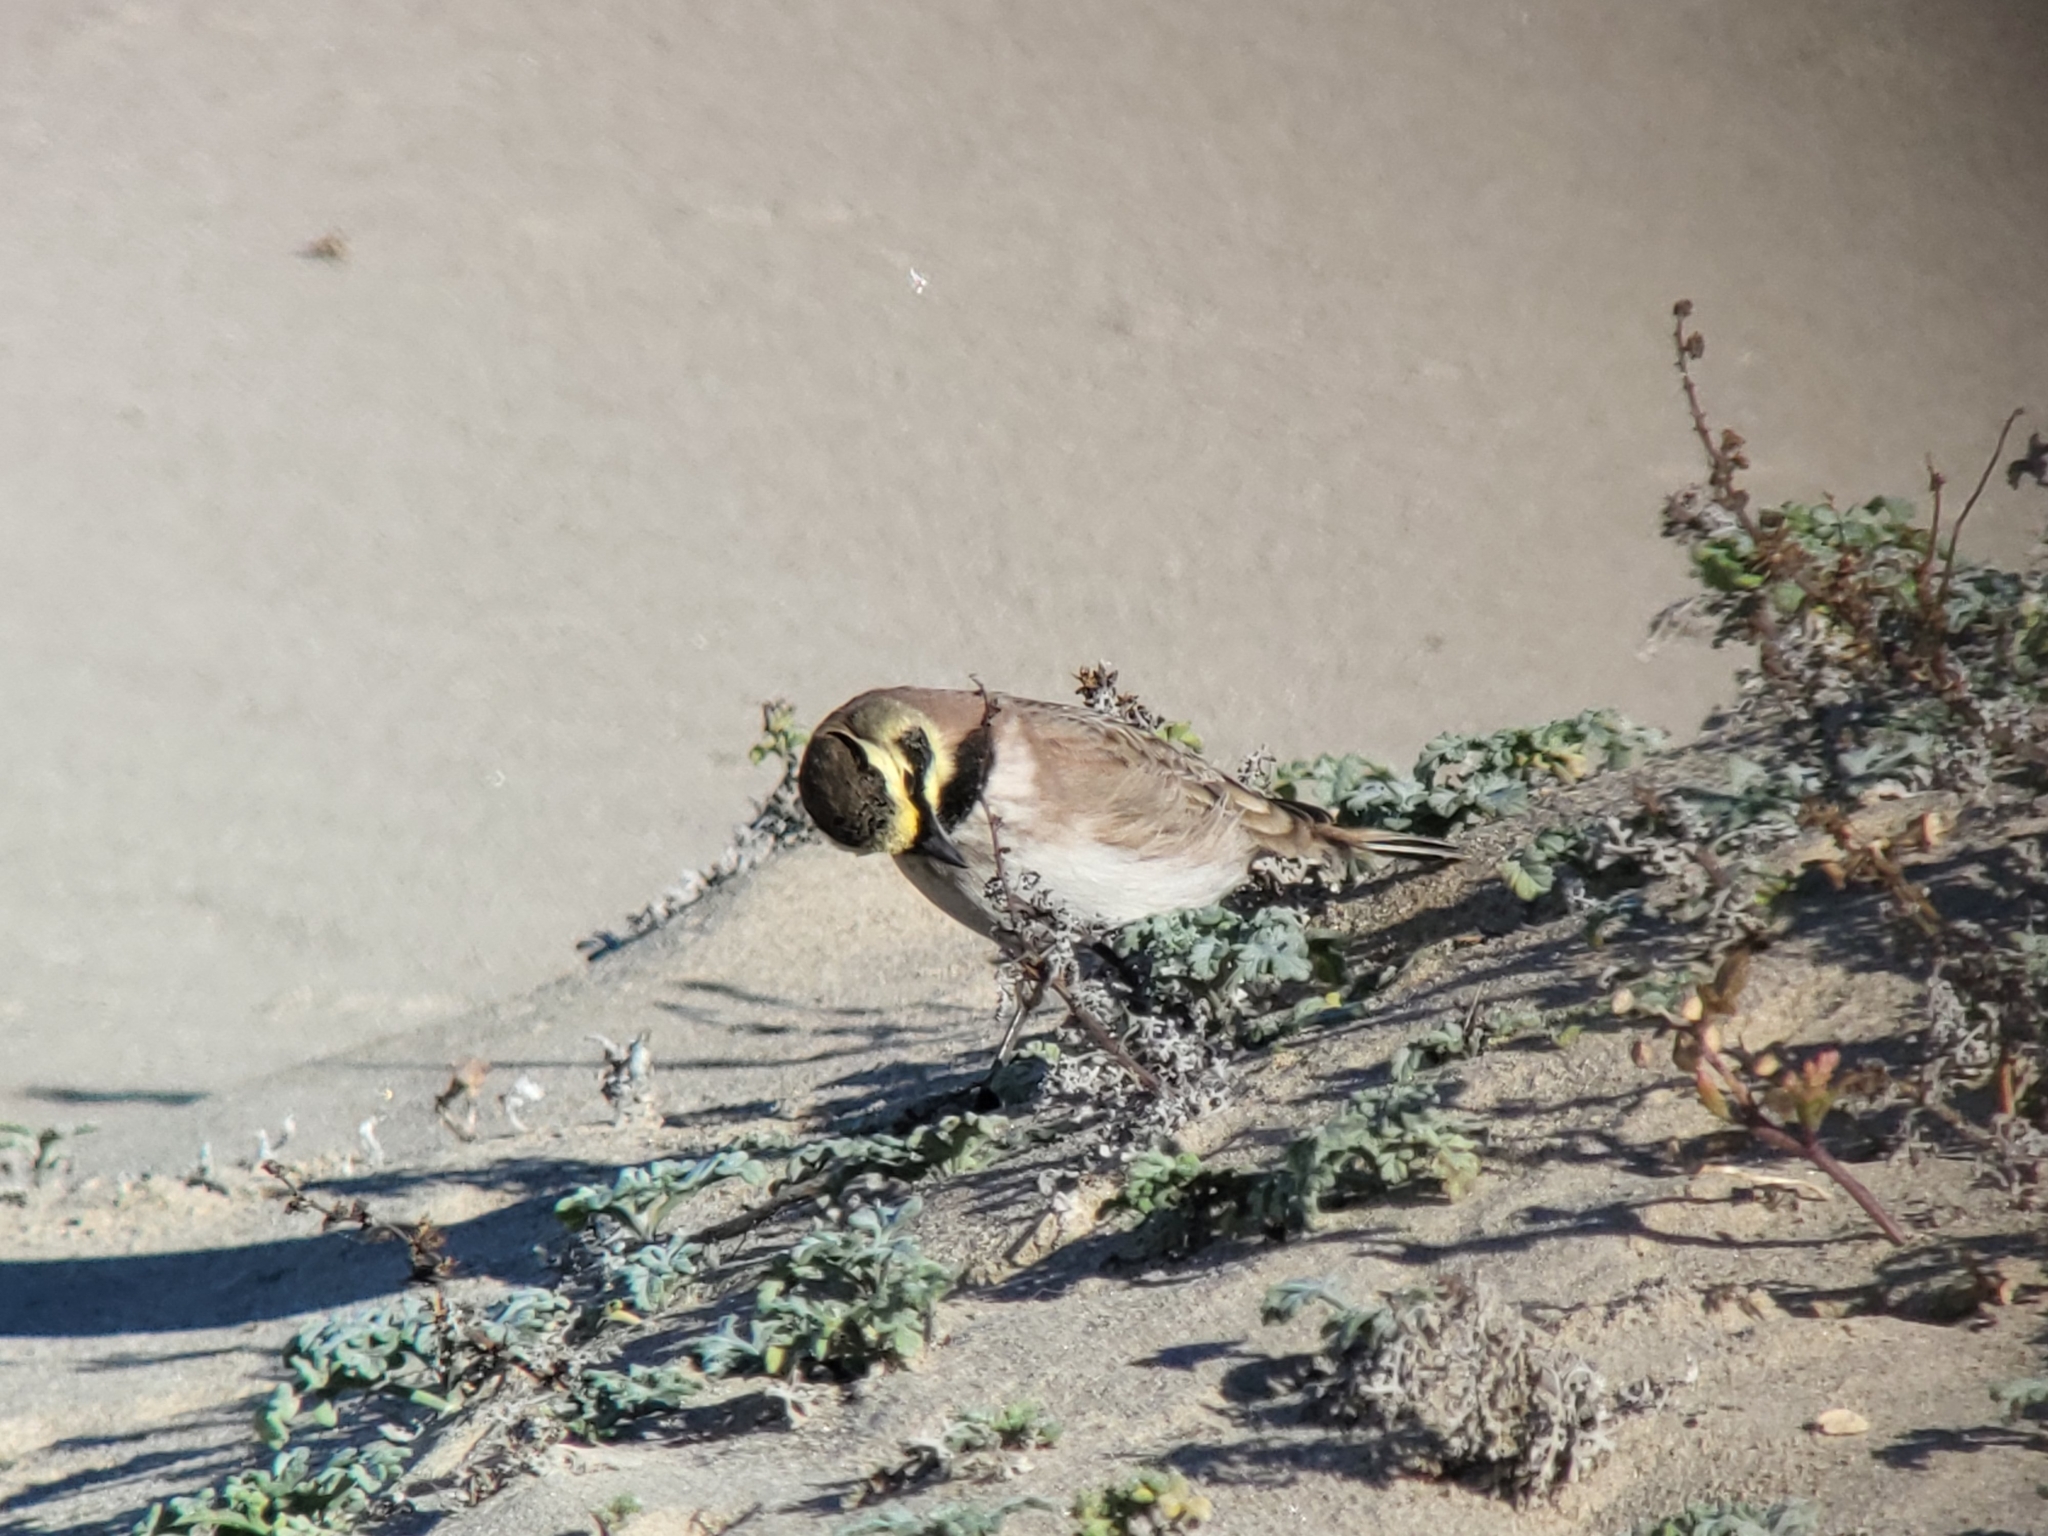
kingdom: Animalia
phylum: Chordata
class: Aves
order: Passeriformes
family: Alaudidae
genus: Eremophila
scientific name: Eremophila alpestris
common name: Horned lark
